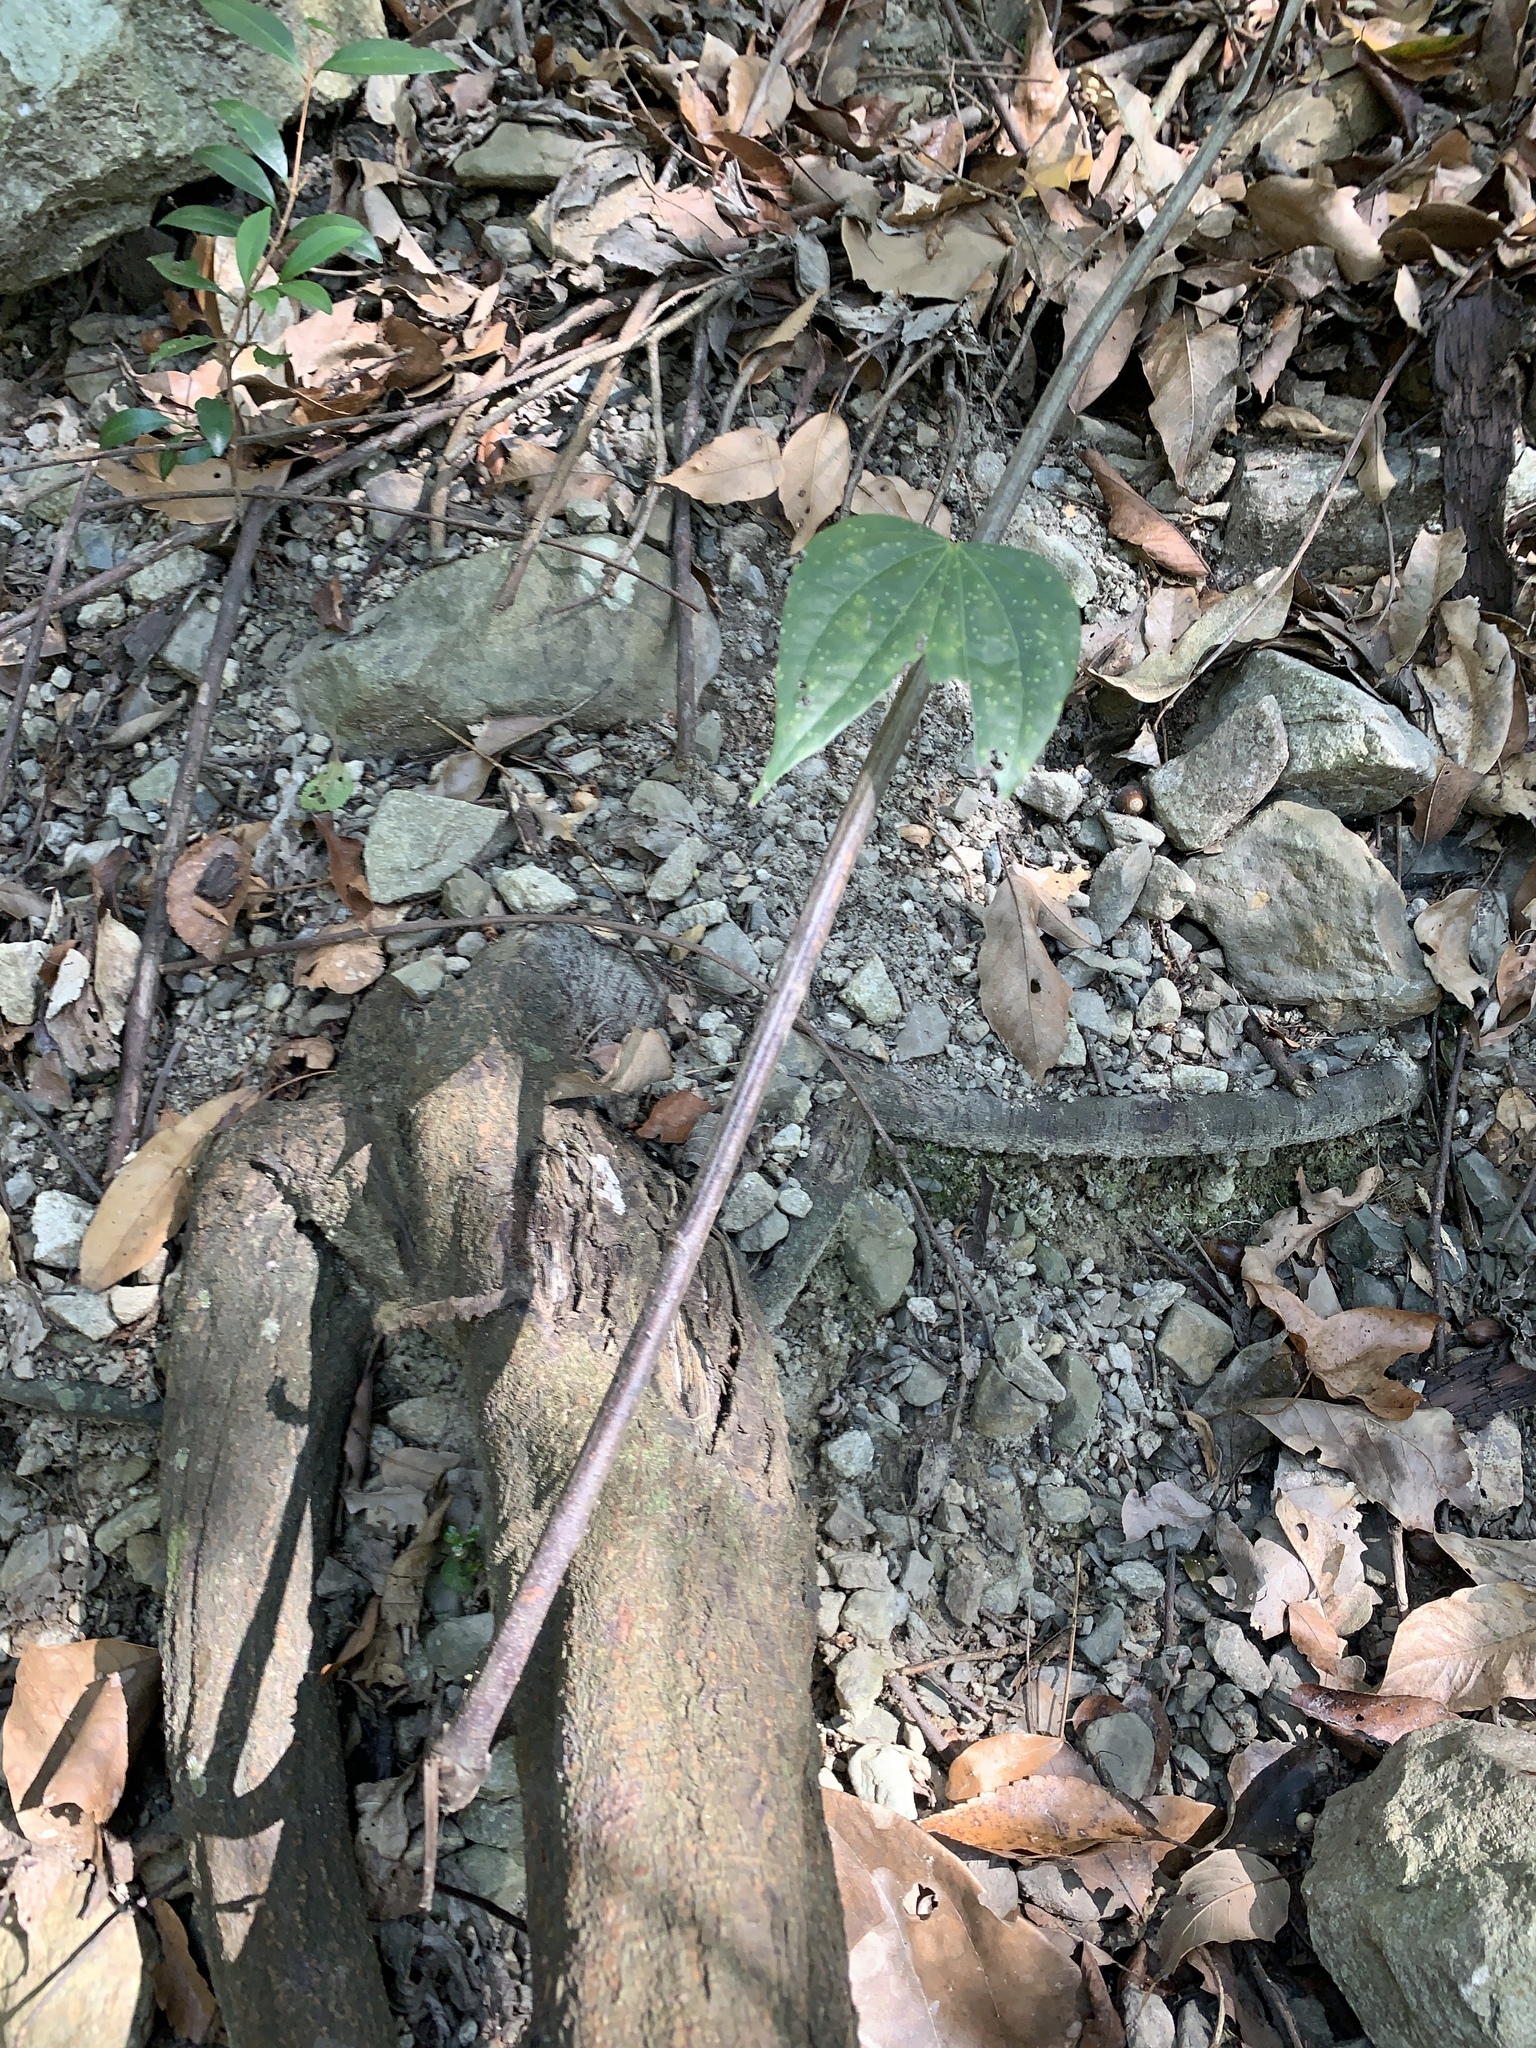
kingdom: Plantae
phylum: Tracheophyta
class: Magnoliopsida
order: Fabales
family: Fabaceae
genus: Phanera
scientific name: Phanera championii
